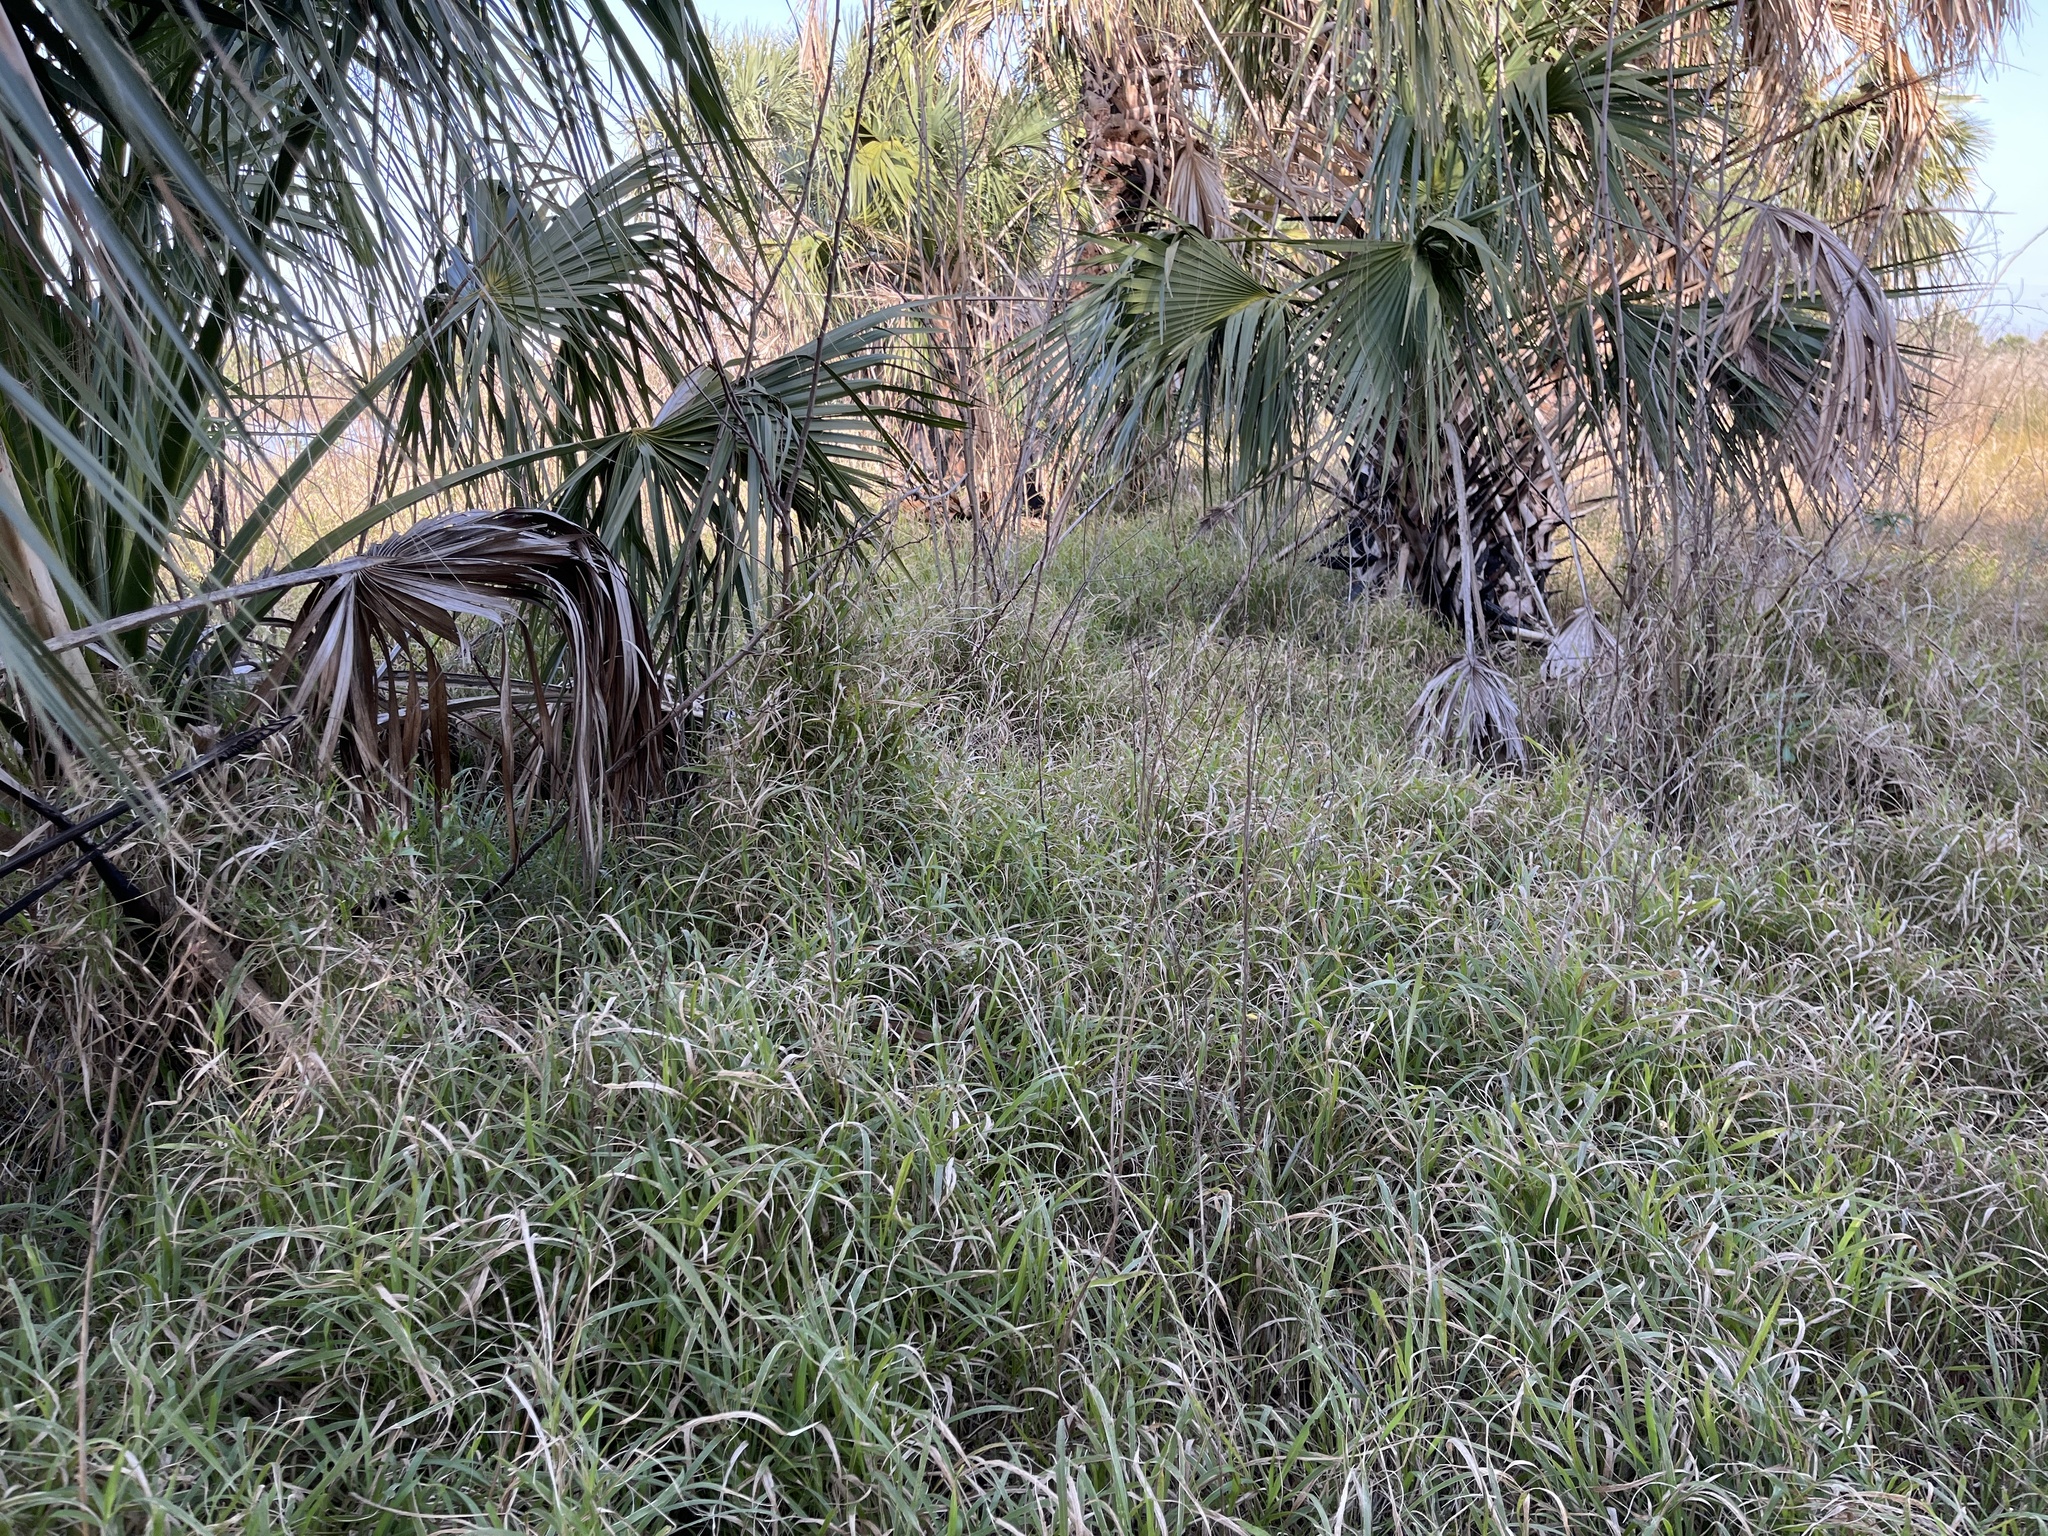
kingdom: Plantae
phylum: Tracheophyta
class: Liliopsida
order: Poales
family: Poaceae
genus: Megathyrsus
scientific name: Megathyrsus maximus
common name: Guineagrass
